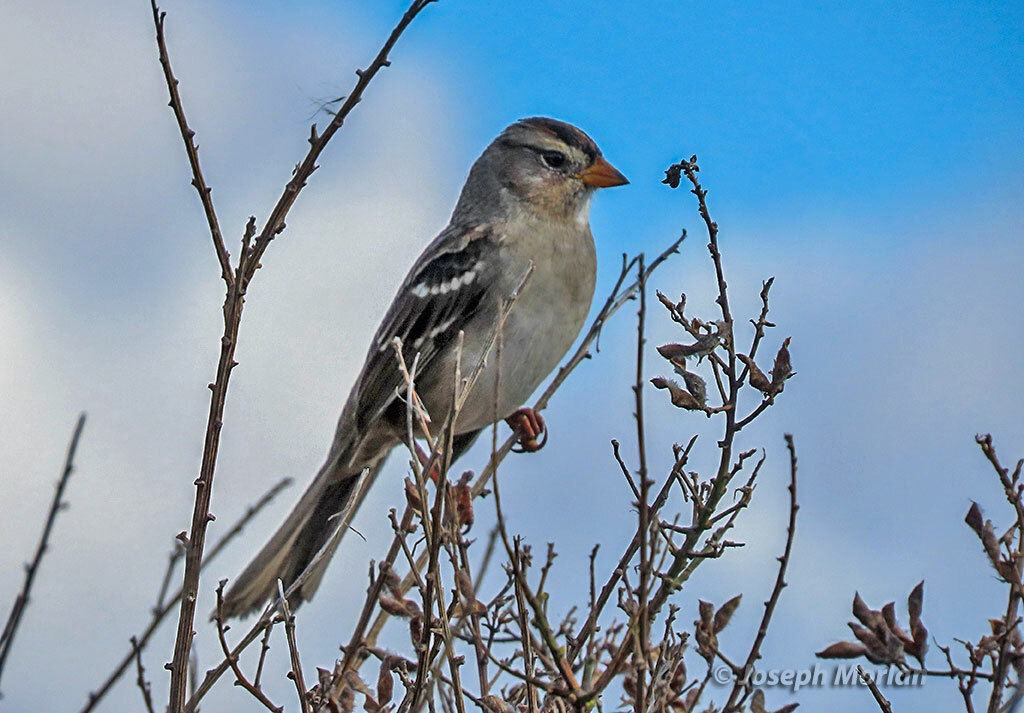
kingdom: Animalia
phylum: Chordata
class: Aves
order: Passeriformes
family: Passerellidae
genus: Zonotrichia
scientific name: Zonotrichia leucophrys
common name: White-crowned sparrow
